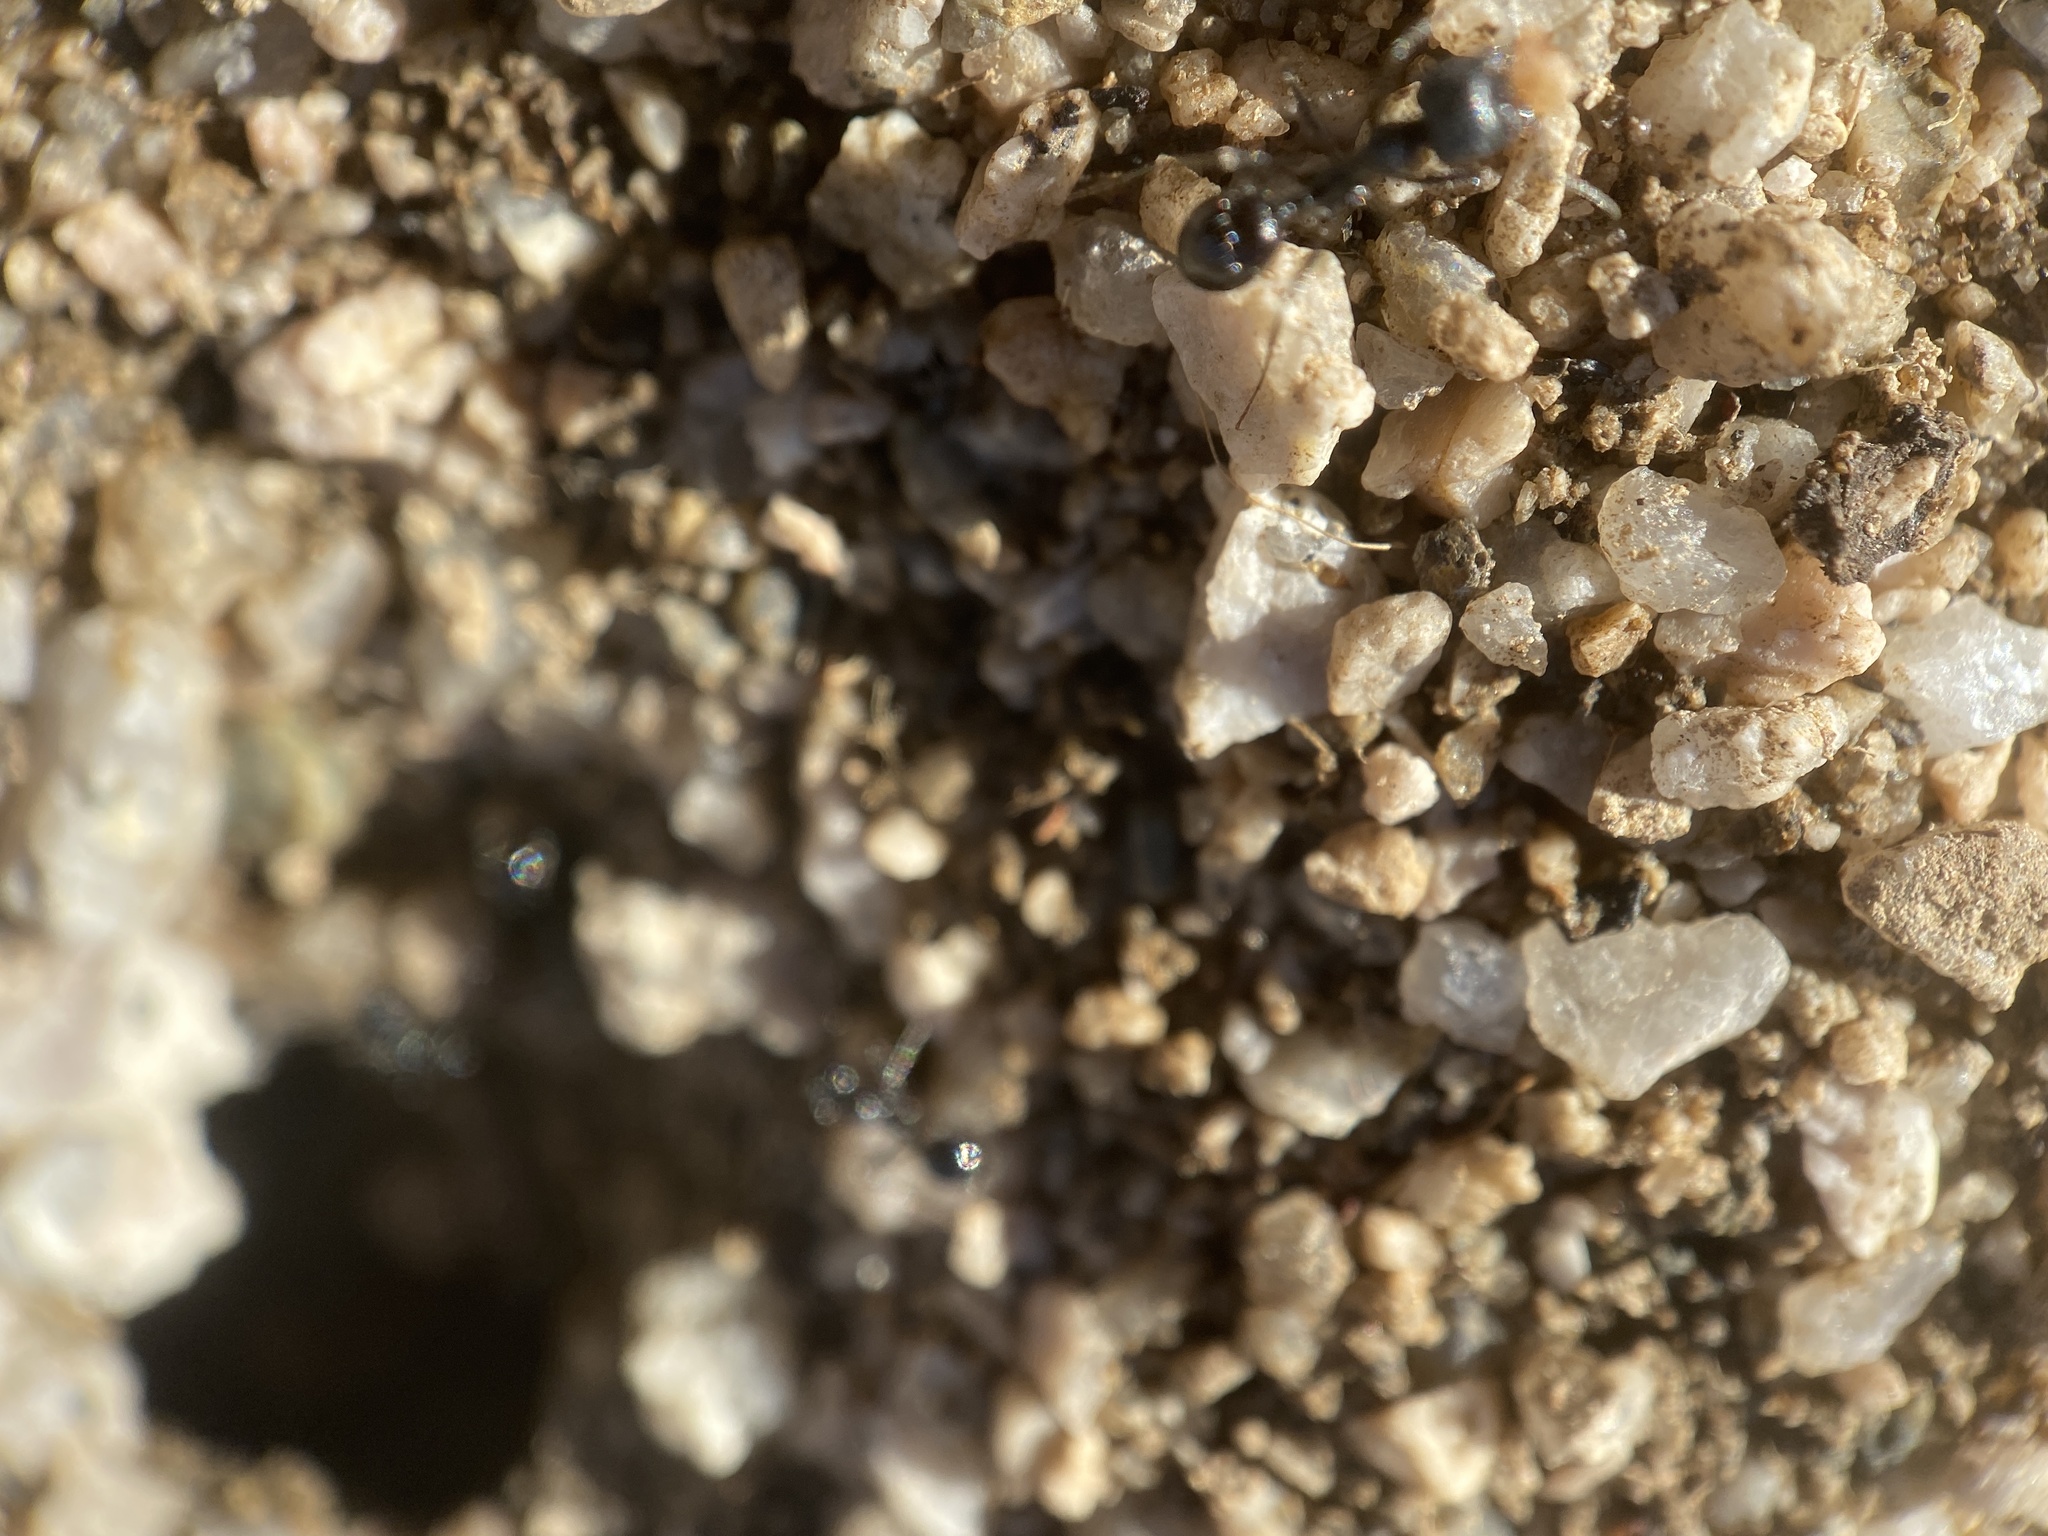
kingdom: Animalia
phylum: Arthropoda
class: Insecta
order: Hymenoptera
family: Formicidae
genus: Messor
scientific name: Messor pergandei
